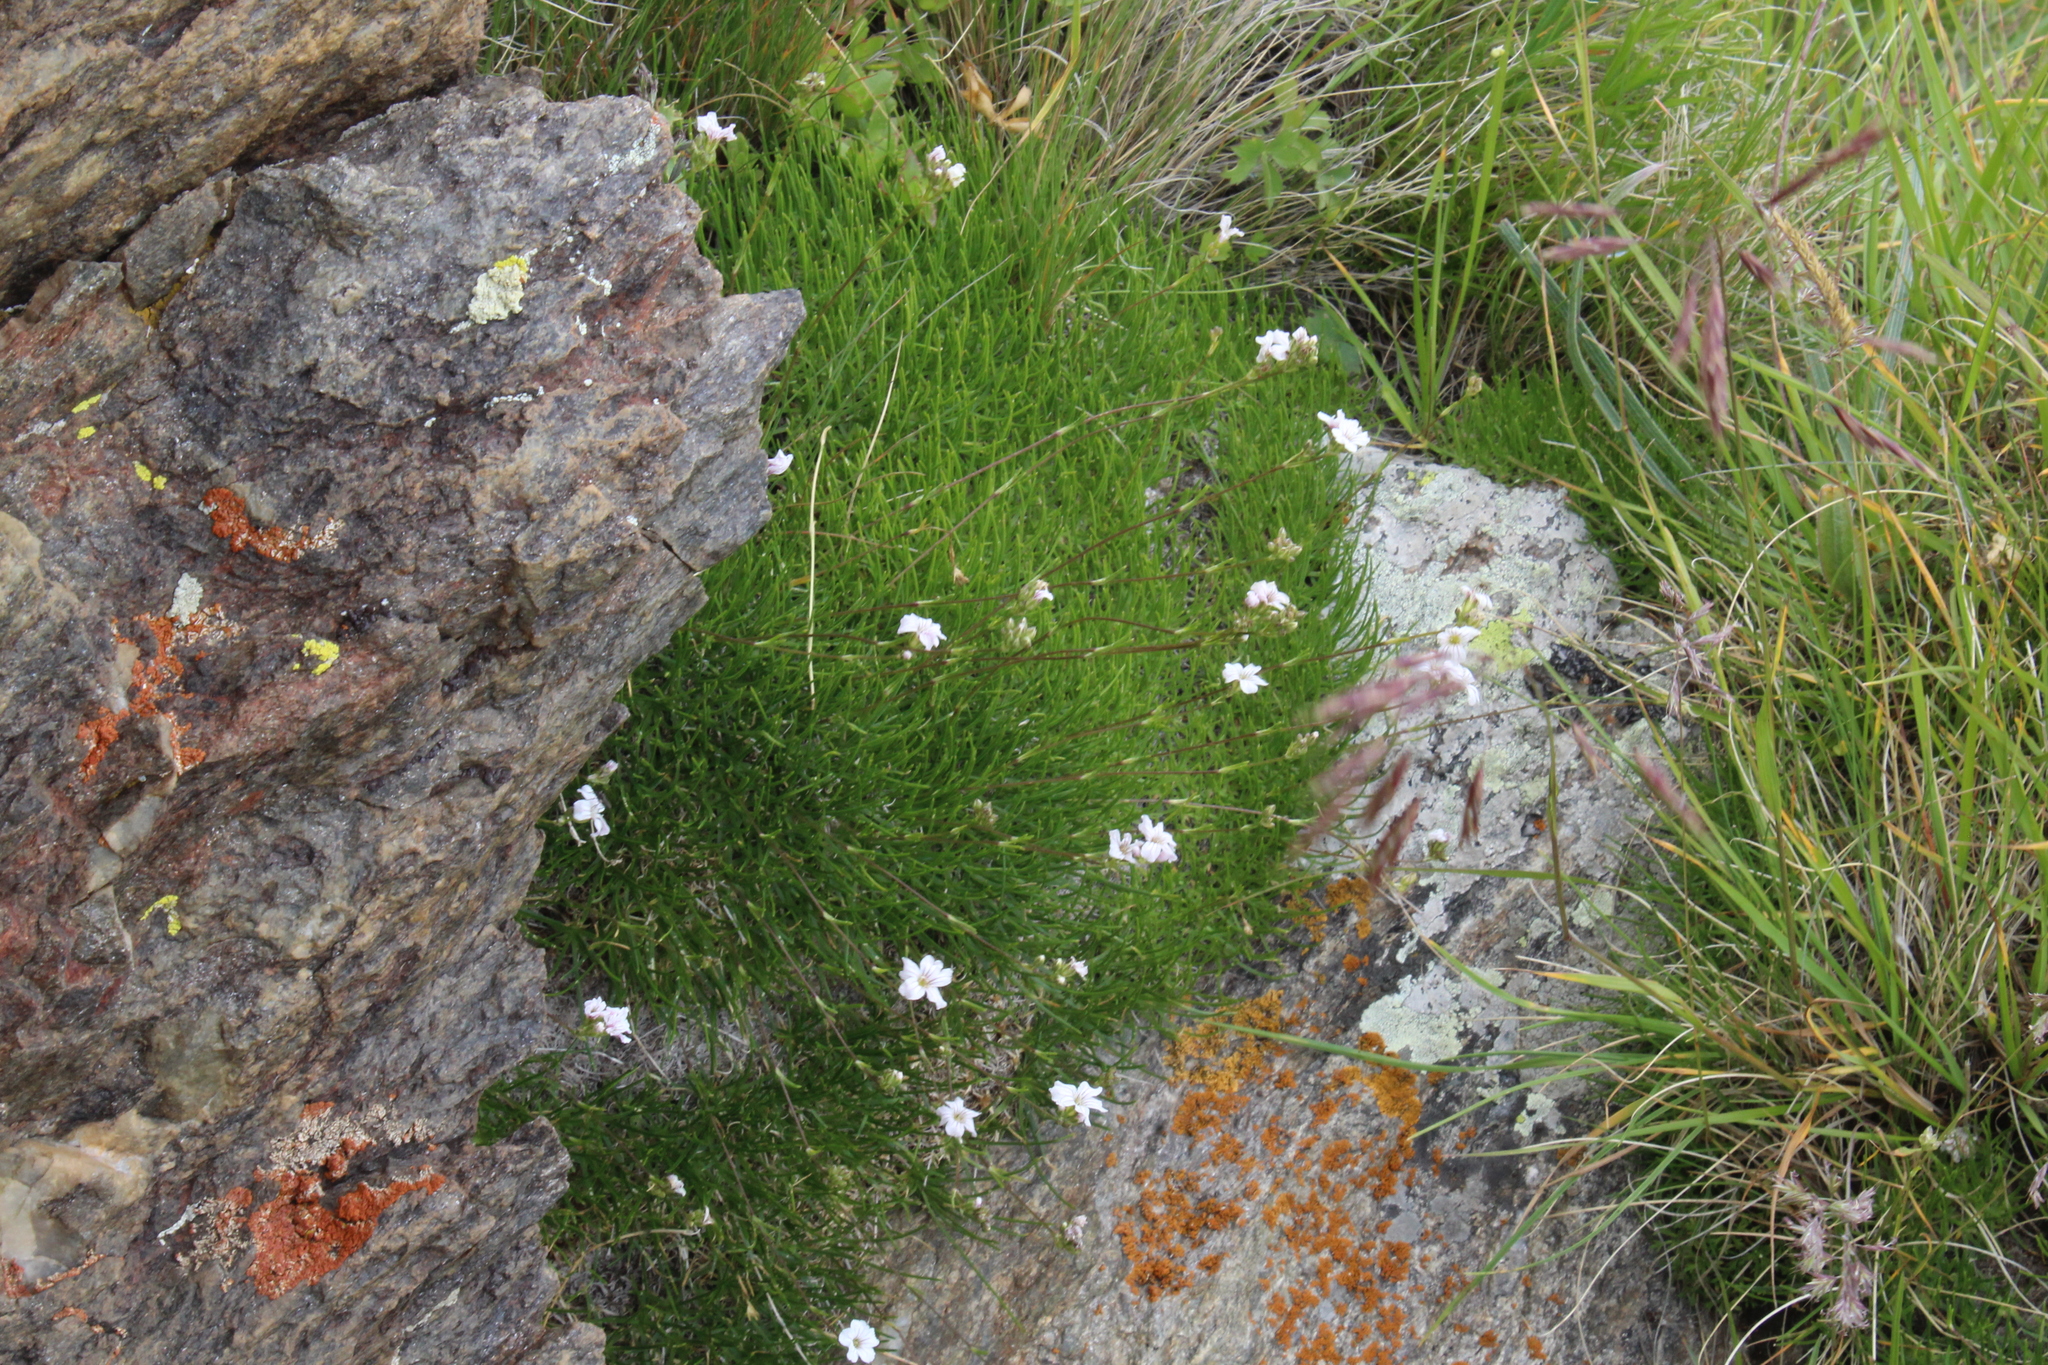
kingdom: Plantae
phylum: Tracheophyta
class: Magnoliopsida
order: Caryophyllales
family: Caryophyllaceae
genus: Gypsophila
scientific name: Gypsophila tenuifolia
